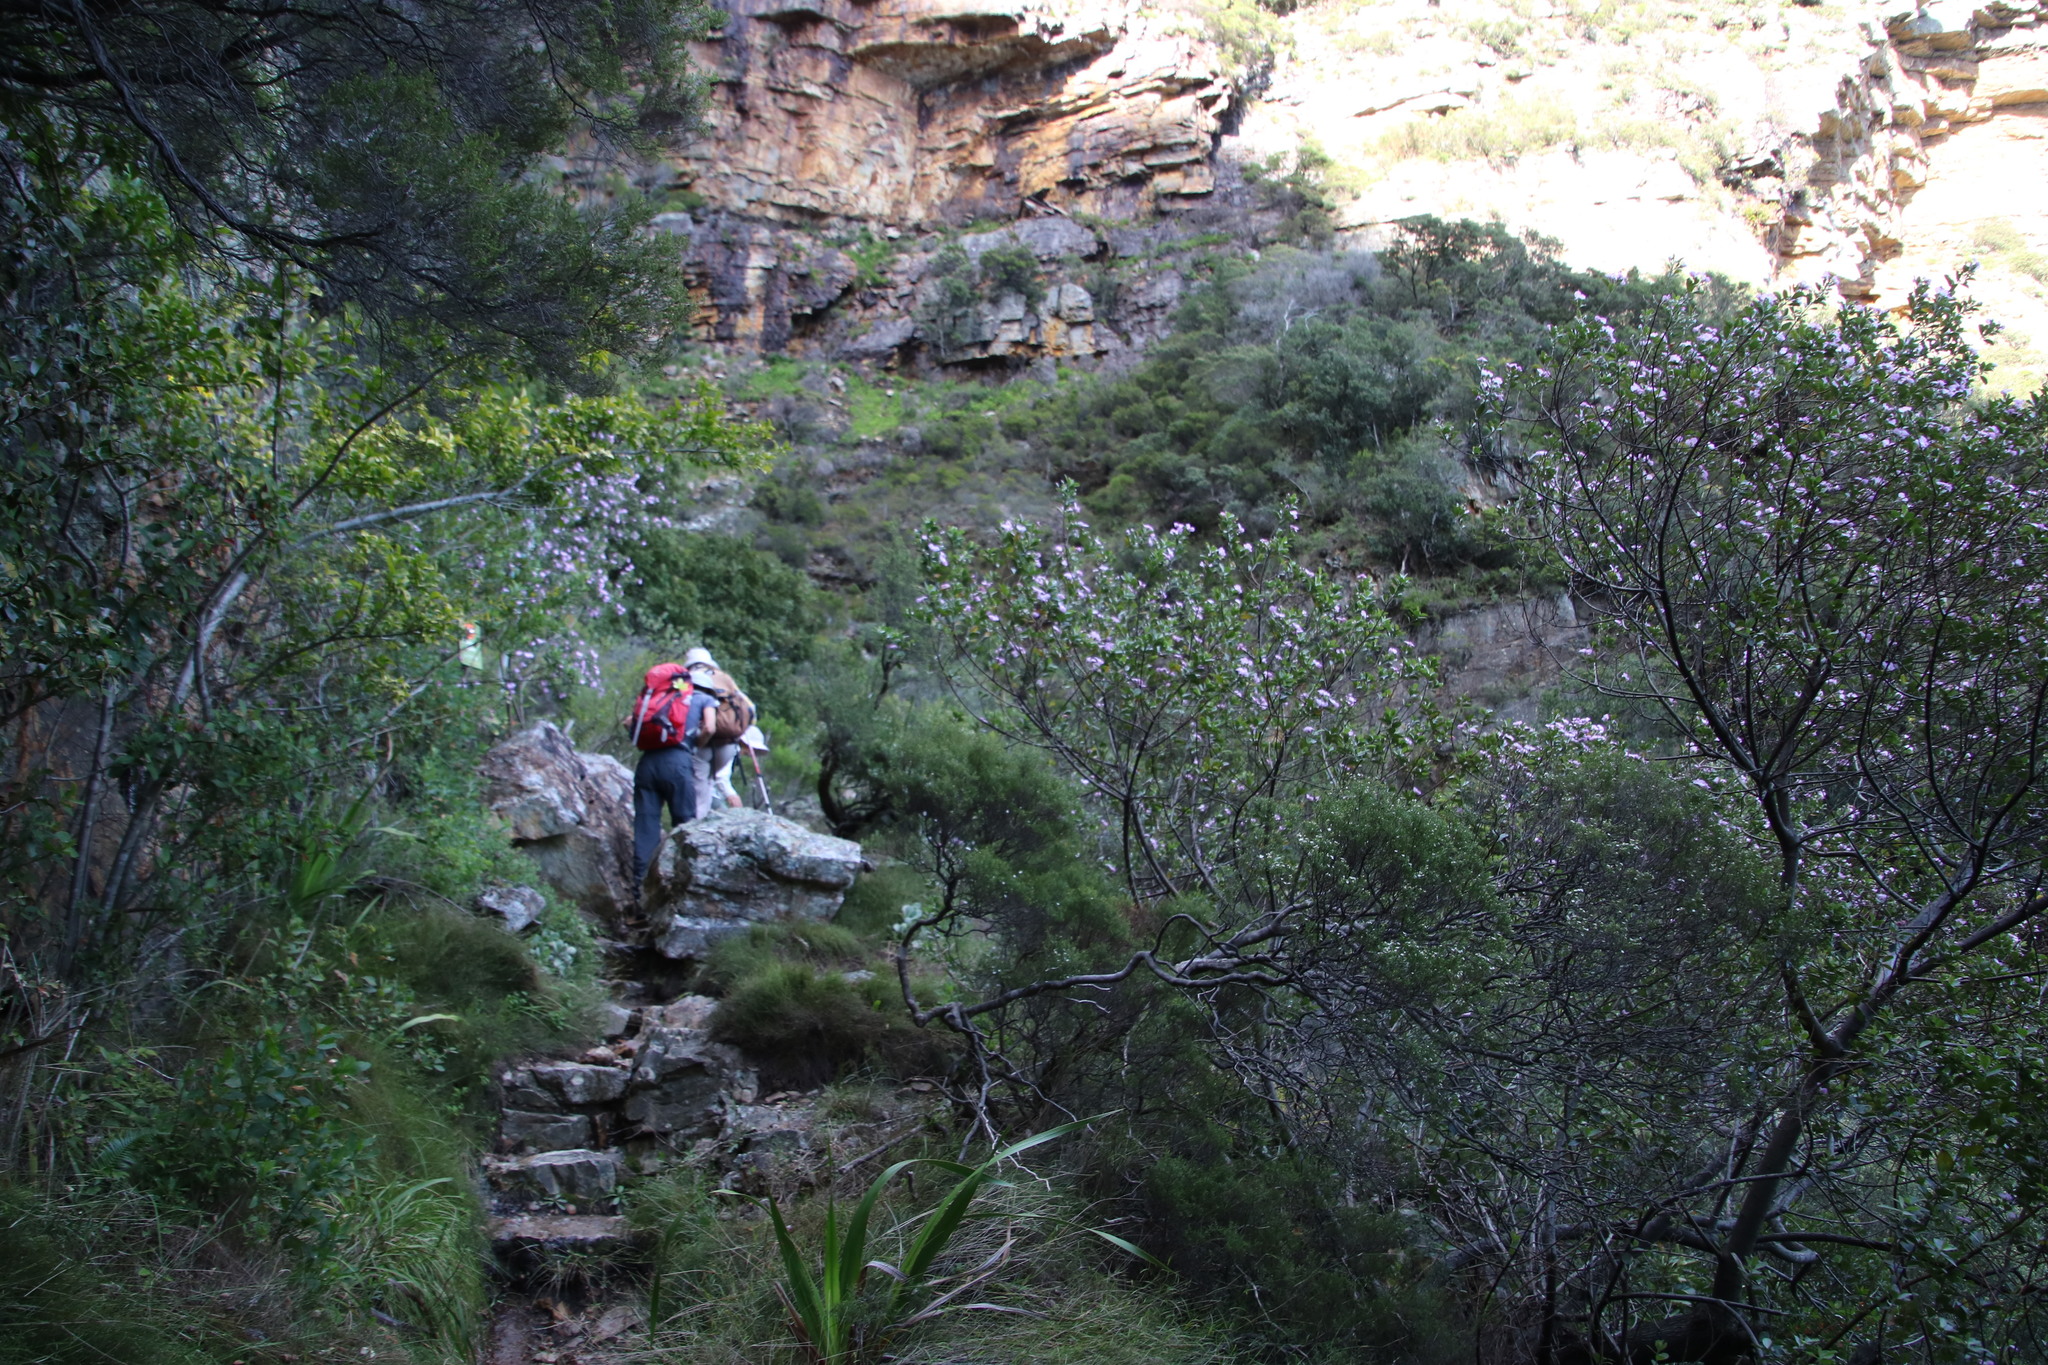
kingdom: Plantae
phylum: Tracheophyta
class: Magnoliopsida
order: Fabales
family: Fabaceae
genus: Podalyria
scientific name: Podalyria calyptrata
